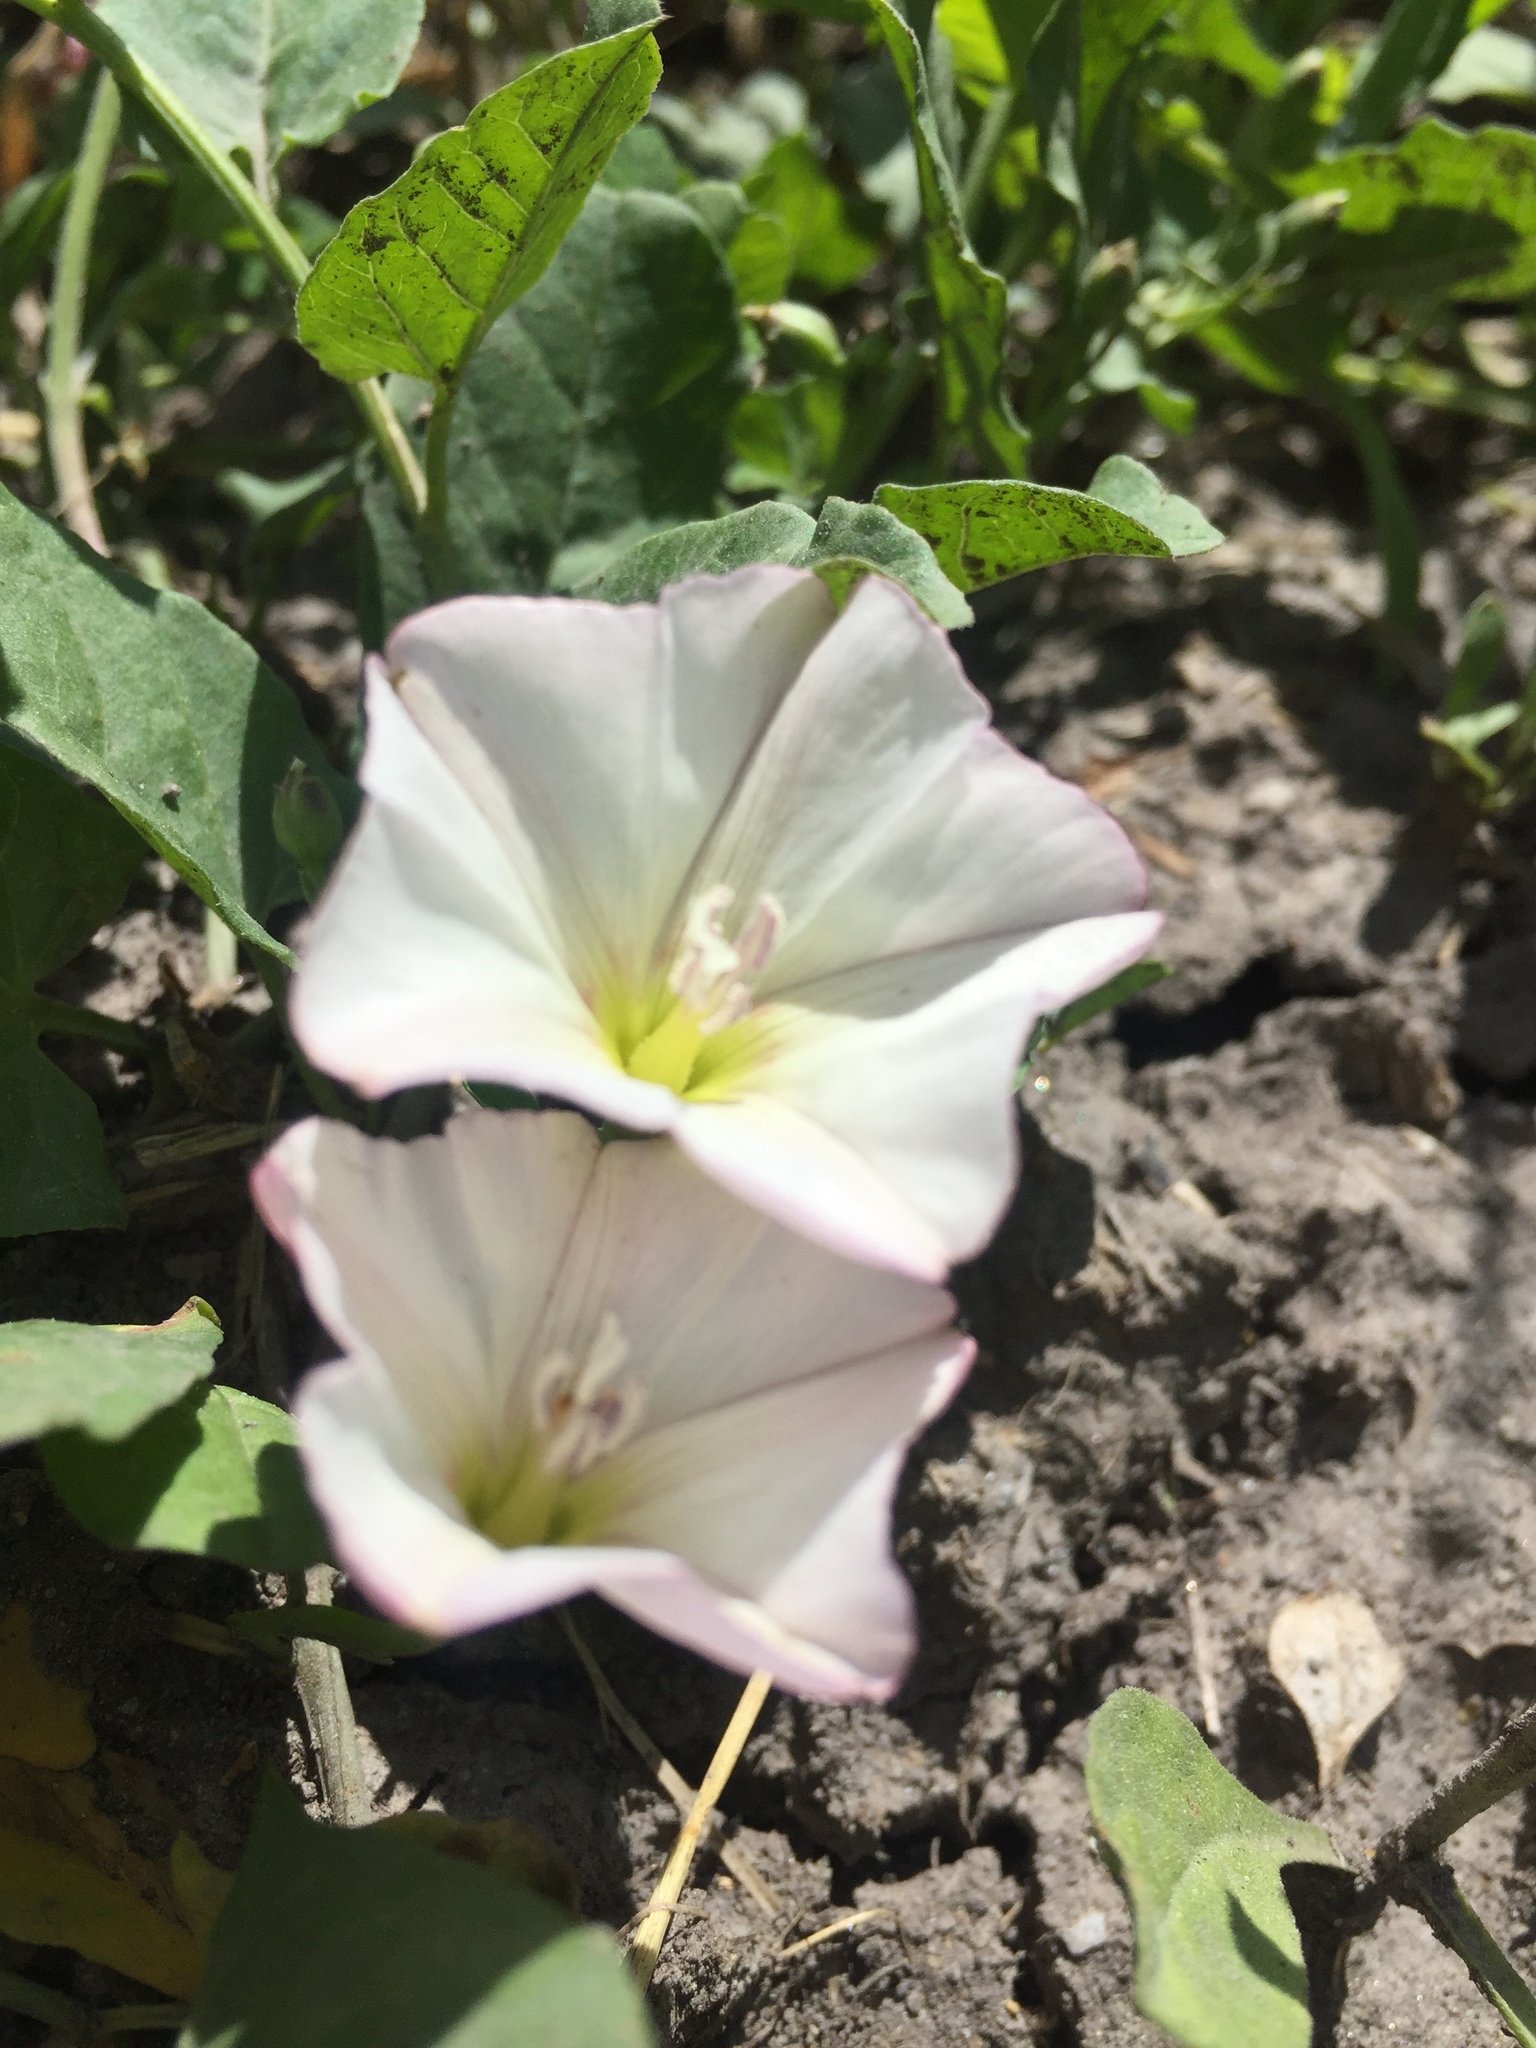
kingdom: Plantae
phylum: Tracheophyta
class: Magnoliopsida
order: Solanales
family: Convolvulaceae
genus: Convolvulus
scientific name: Convolvulus arvensis
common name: Field bindweed
